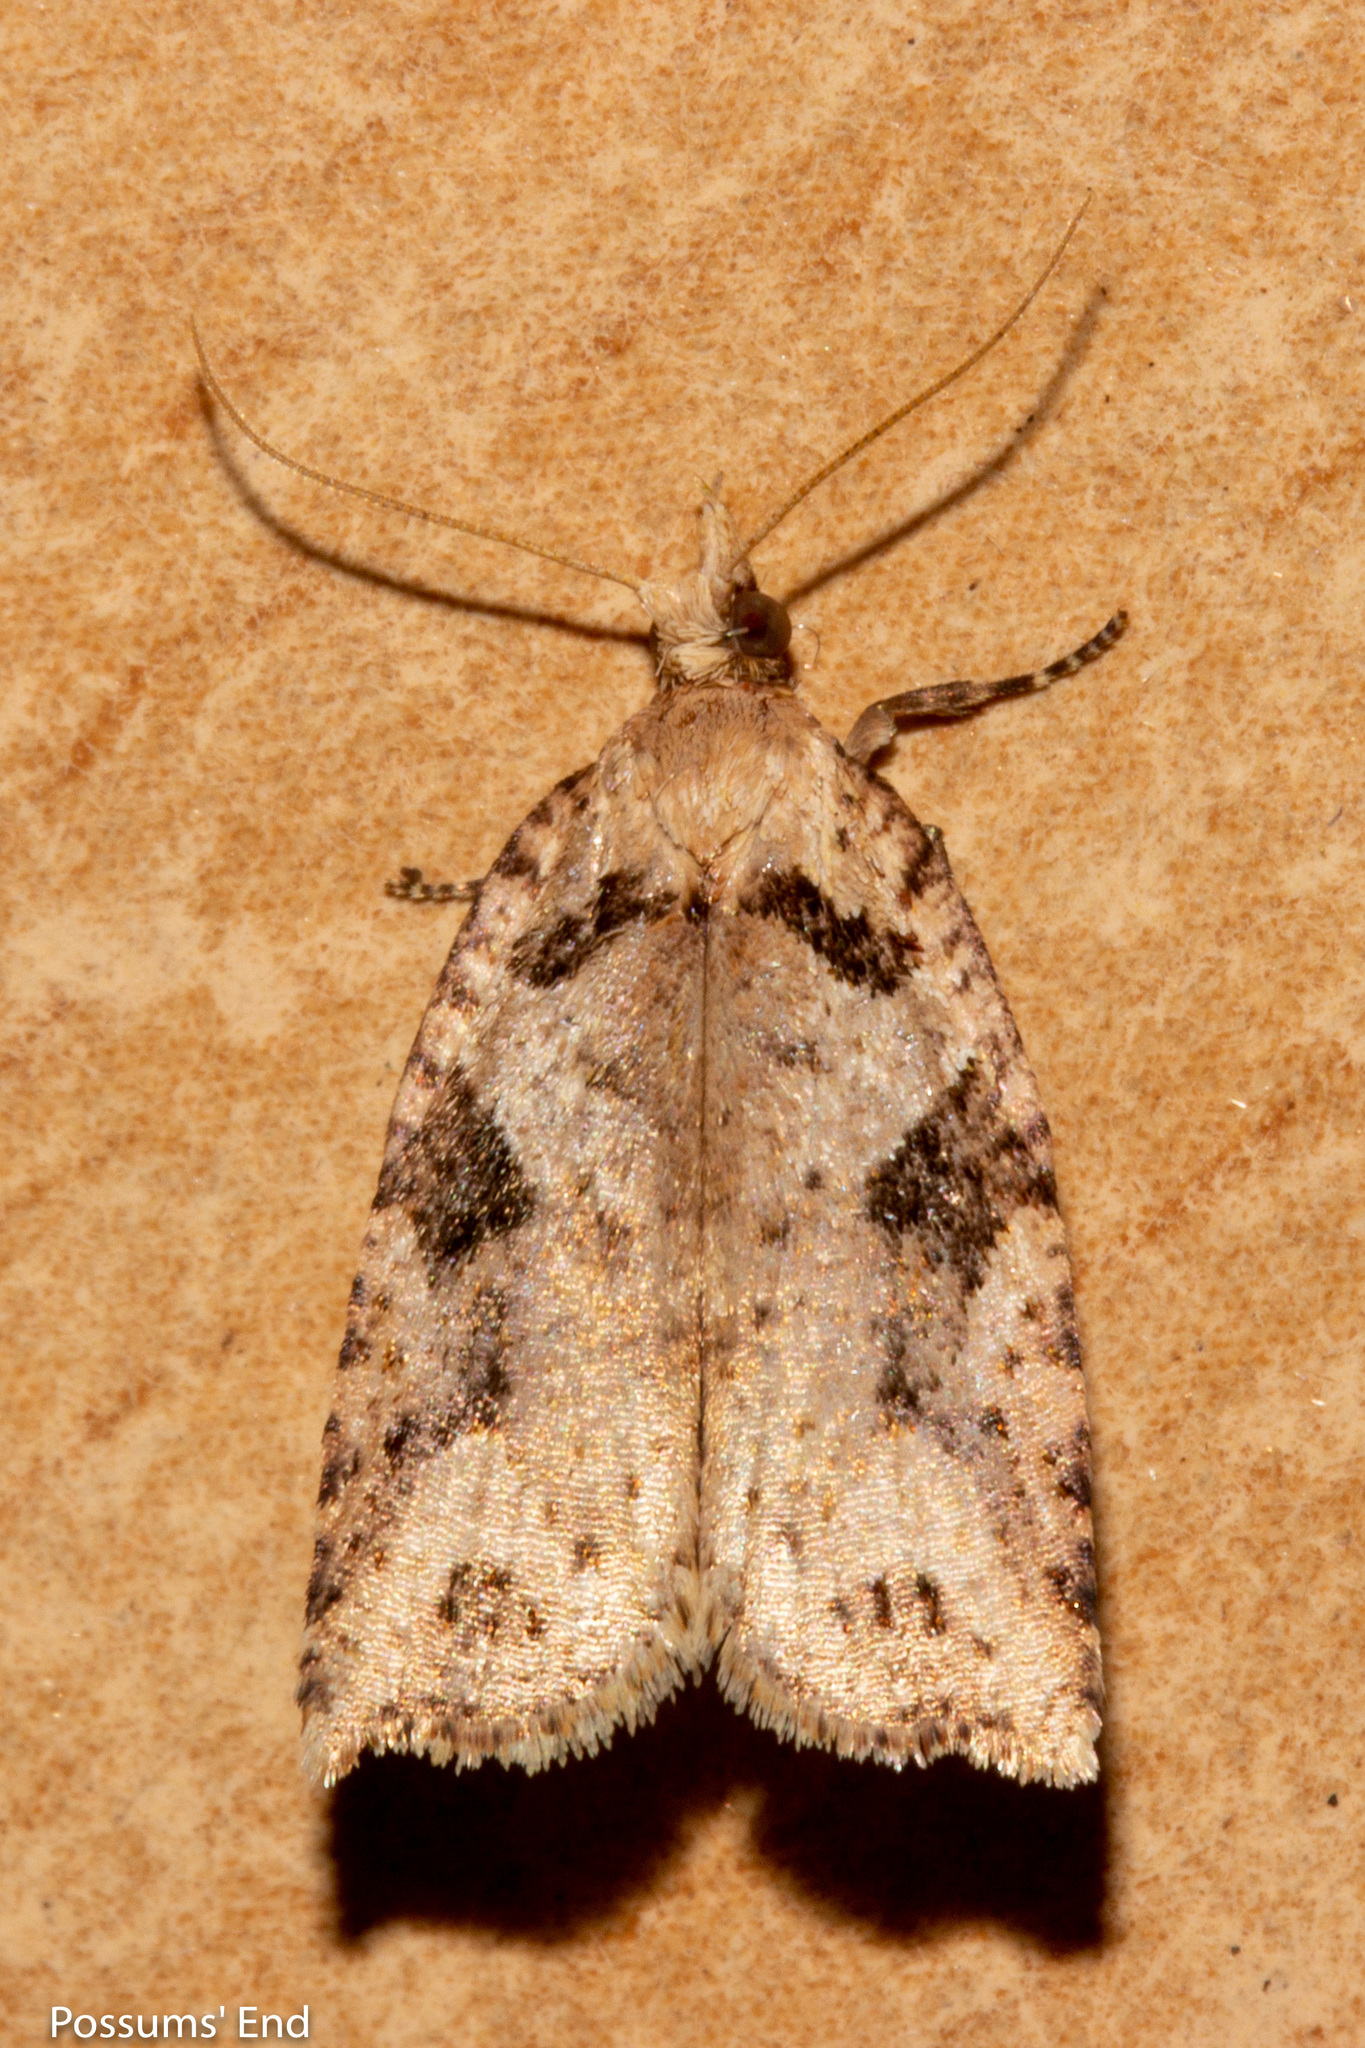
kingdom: Animalia
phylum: Arthropoda
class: Insecta
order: Lepidoptera
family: Tortricidae
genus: Ctenopseustis
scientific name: Ctenopseustis obliquana
